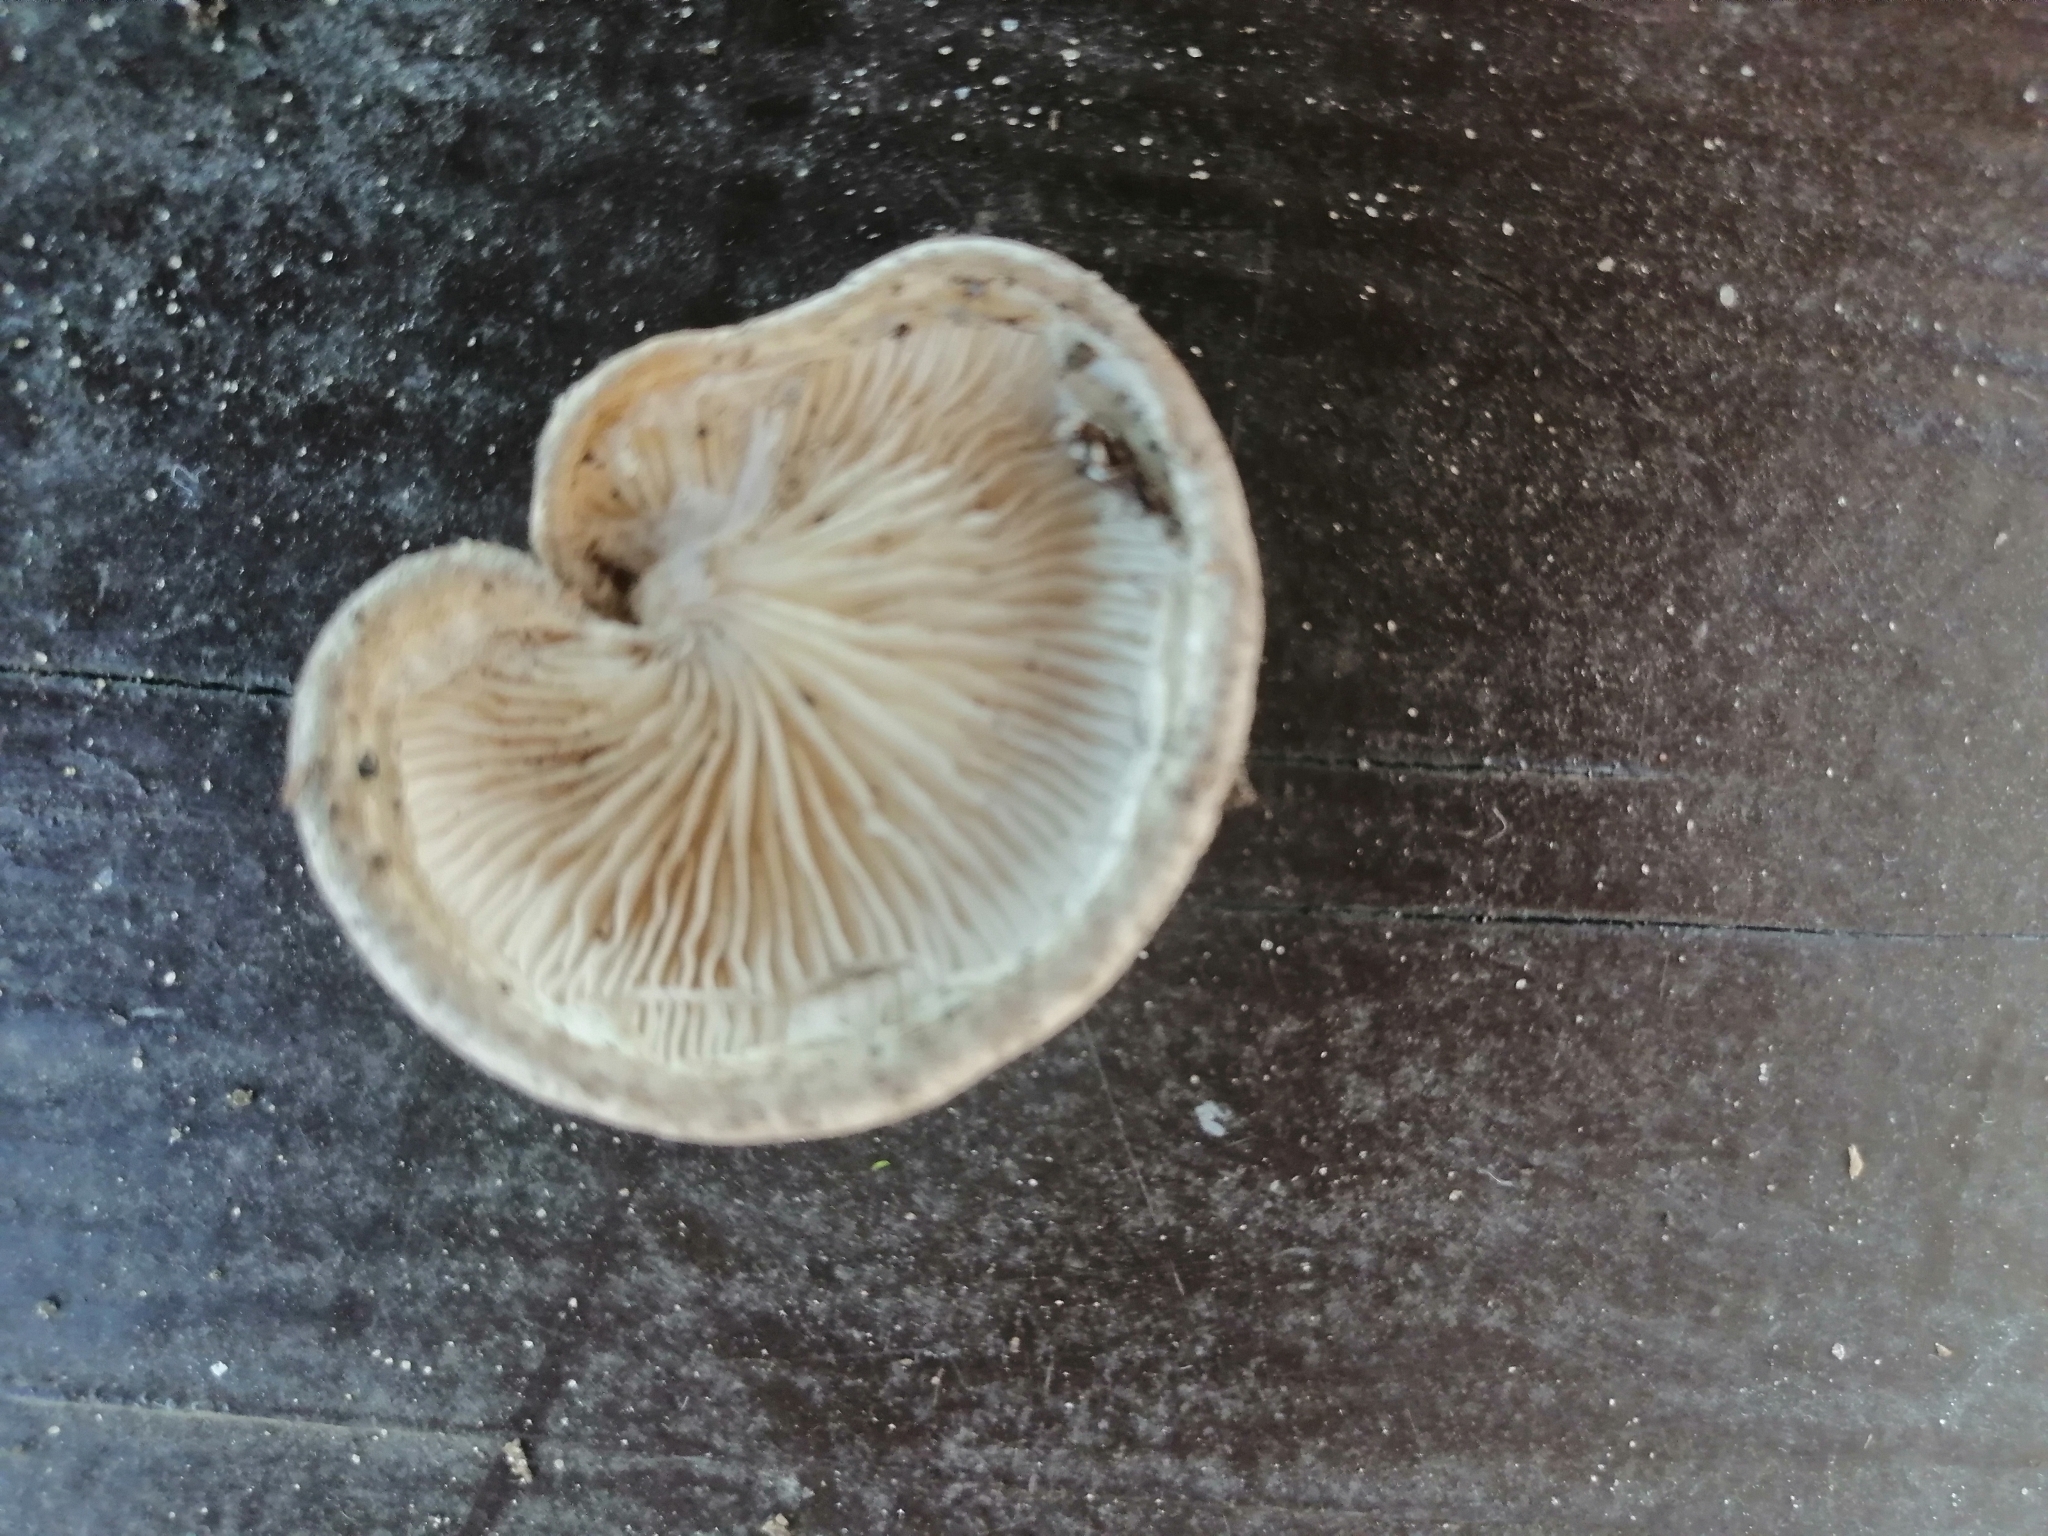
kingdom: Fungi
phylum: Basidiomycota
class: Agaricomycetes
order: Agaricales
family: Pleurotaceae
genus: Pleurotus
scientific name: Pleurotus calyptratus
